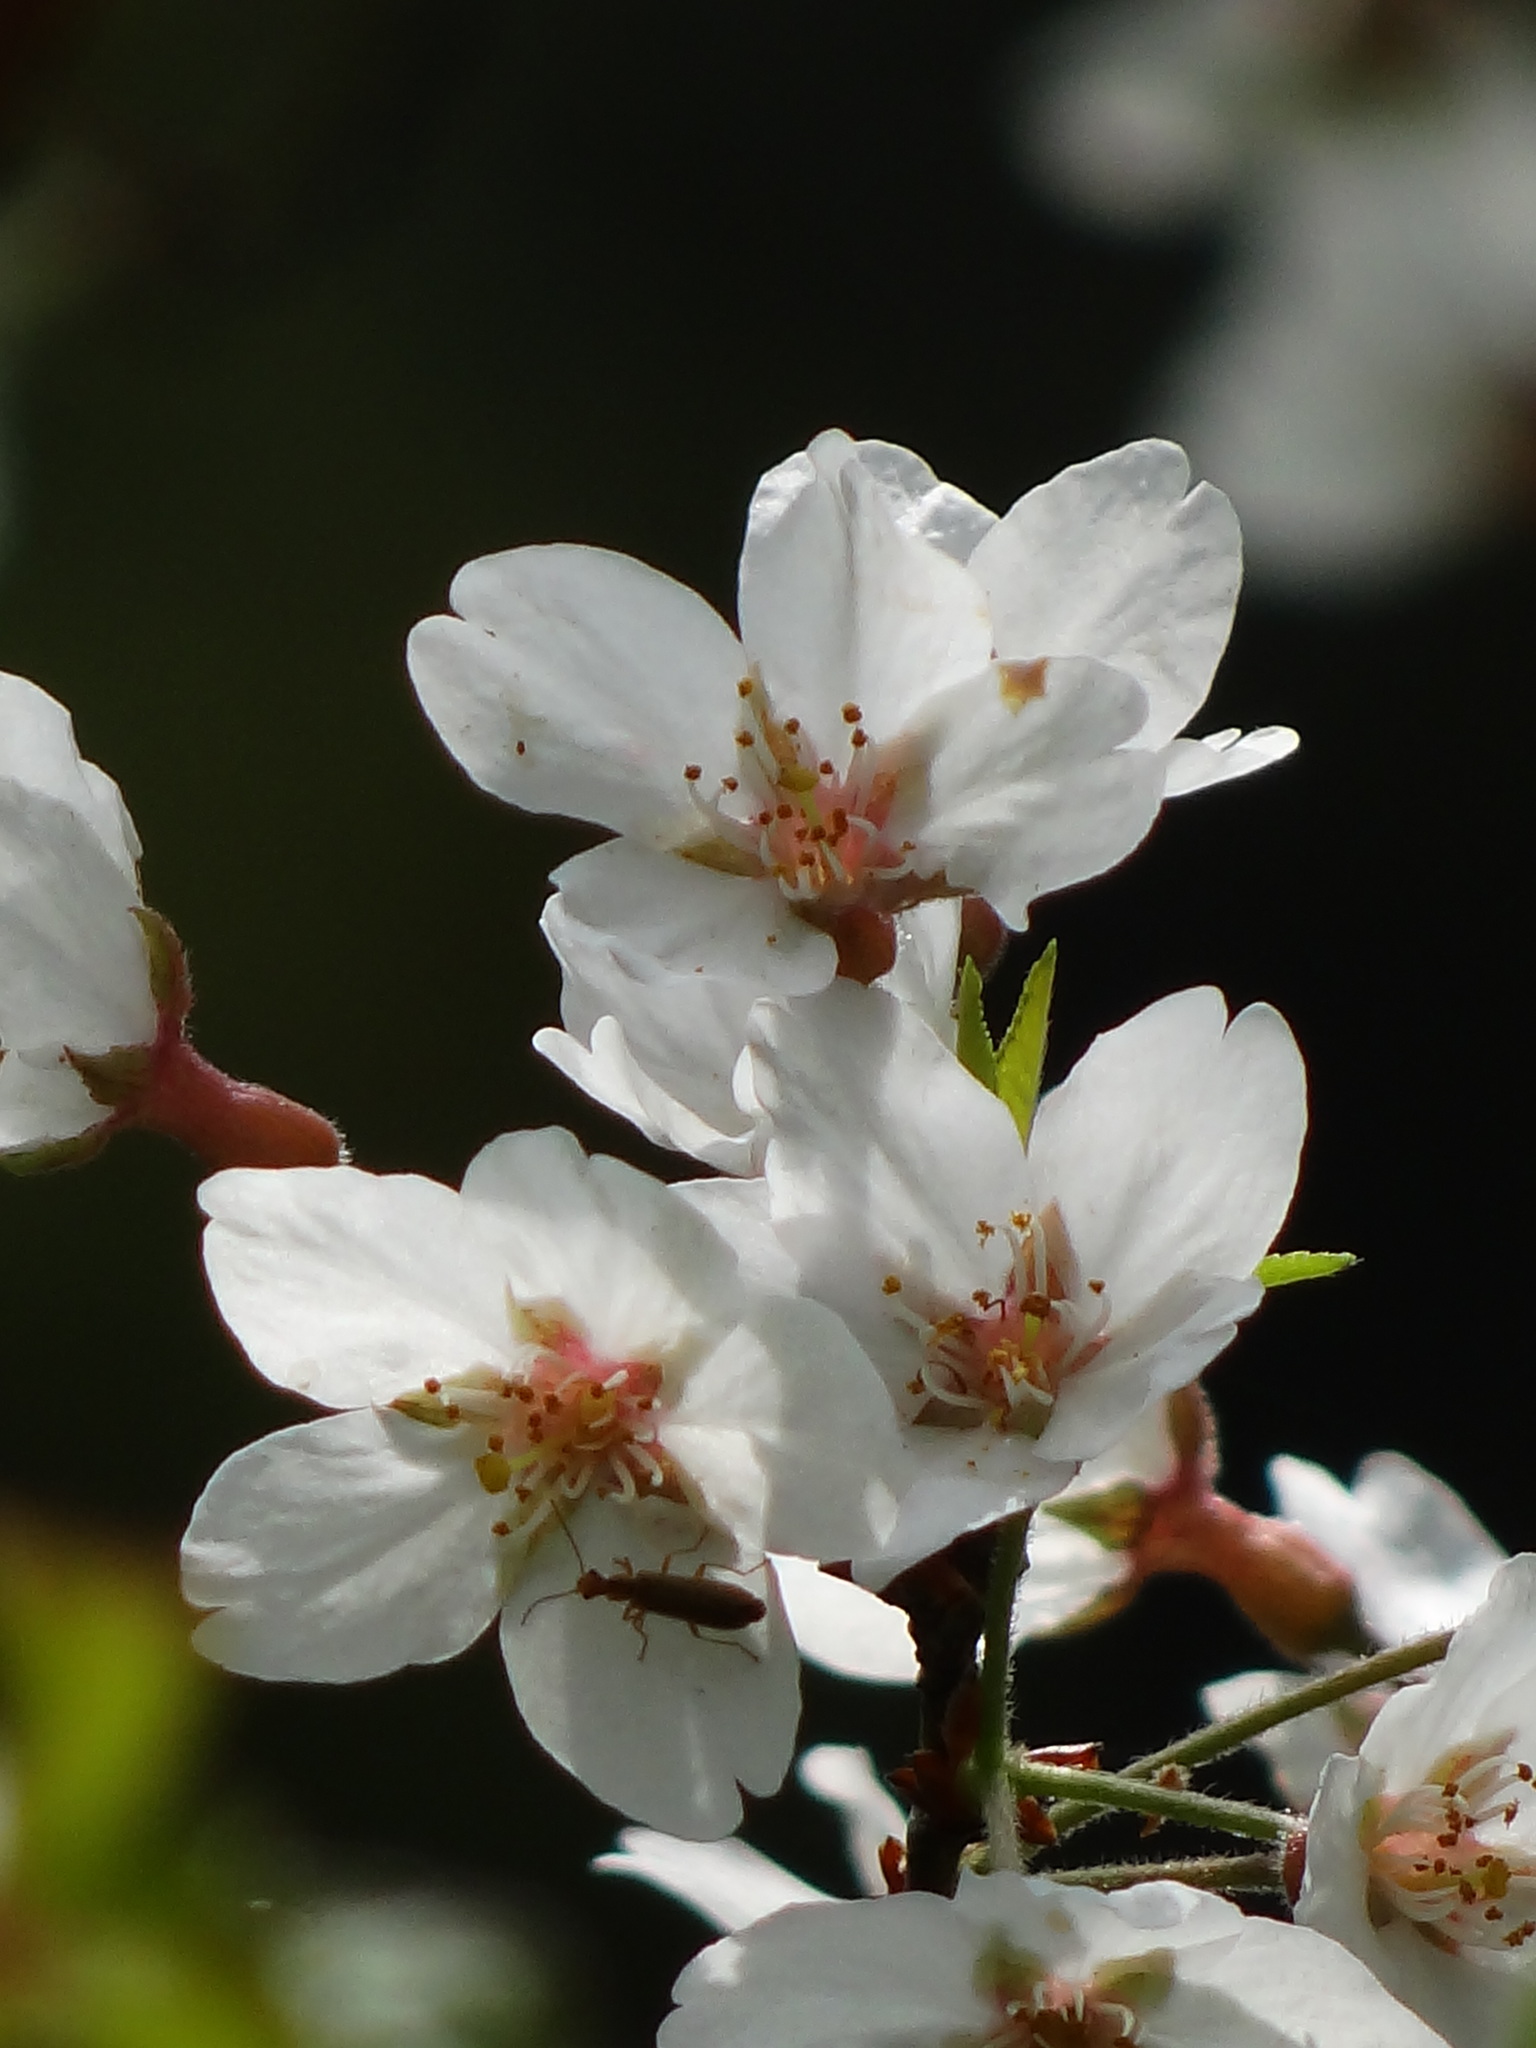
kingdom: Plantae
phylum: Tracheophyta
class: Magnoliopsida
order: Rosales
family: Rosaceae
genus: Prunus
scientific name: Prunus itosakura
